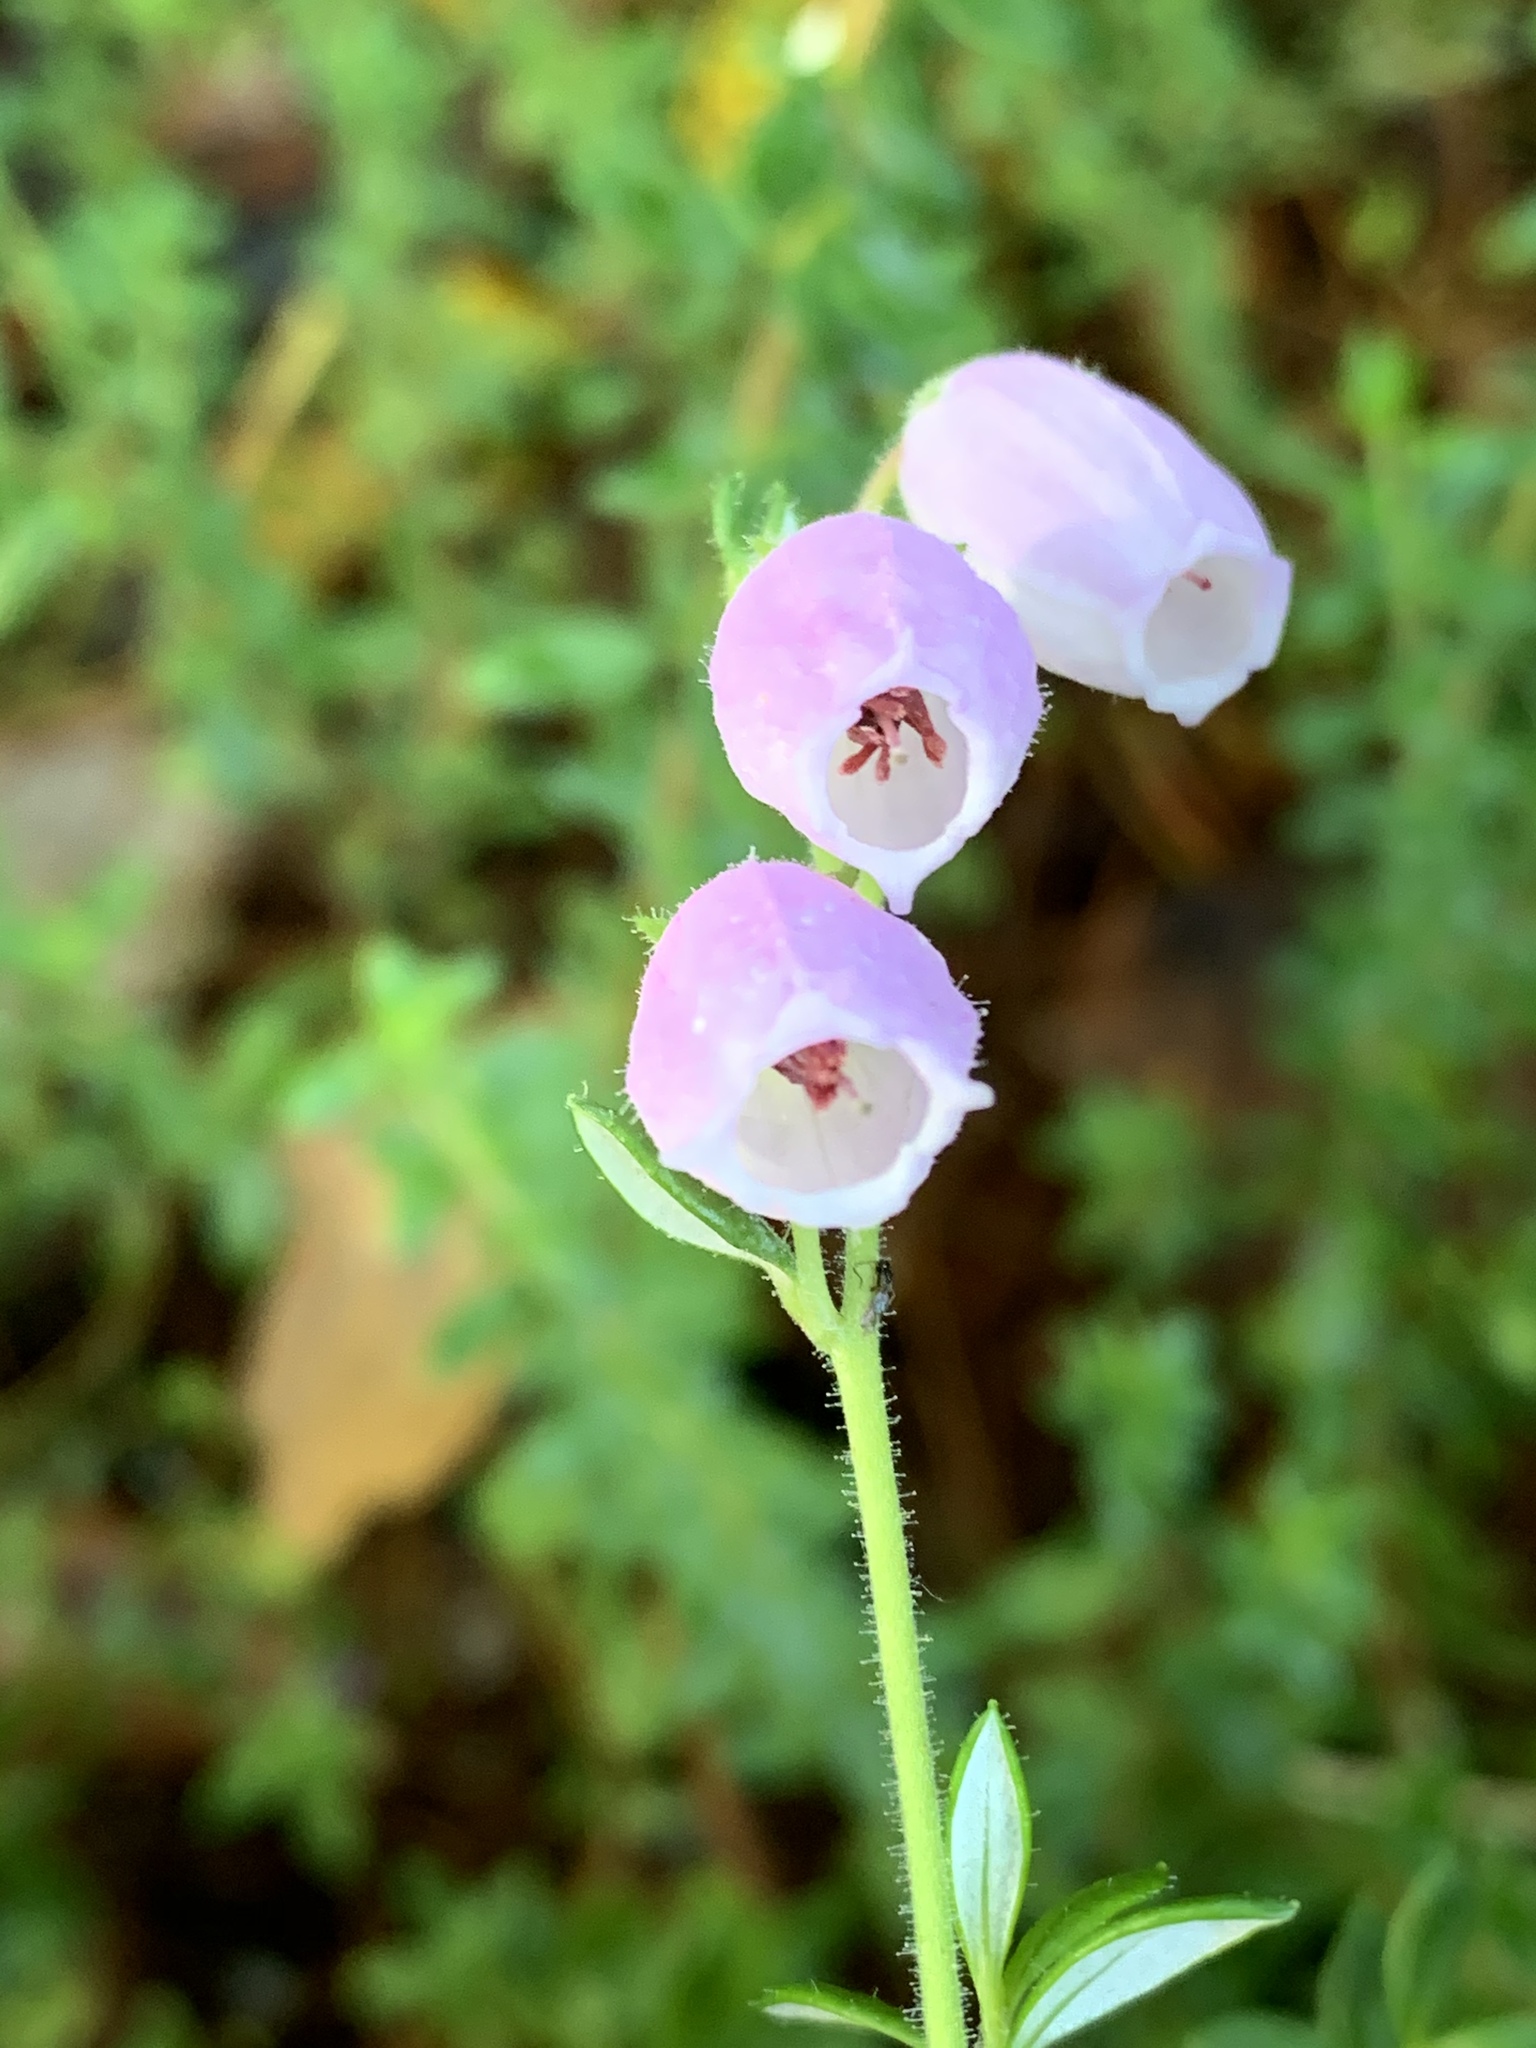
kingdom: Plantae
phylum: Tracheophyta
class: Magnoliopsida
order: Ericales
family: Ericaceae
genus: Daboecia
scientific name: Daboecia cantabrica
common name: St. dabeoc's-heath
